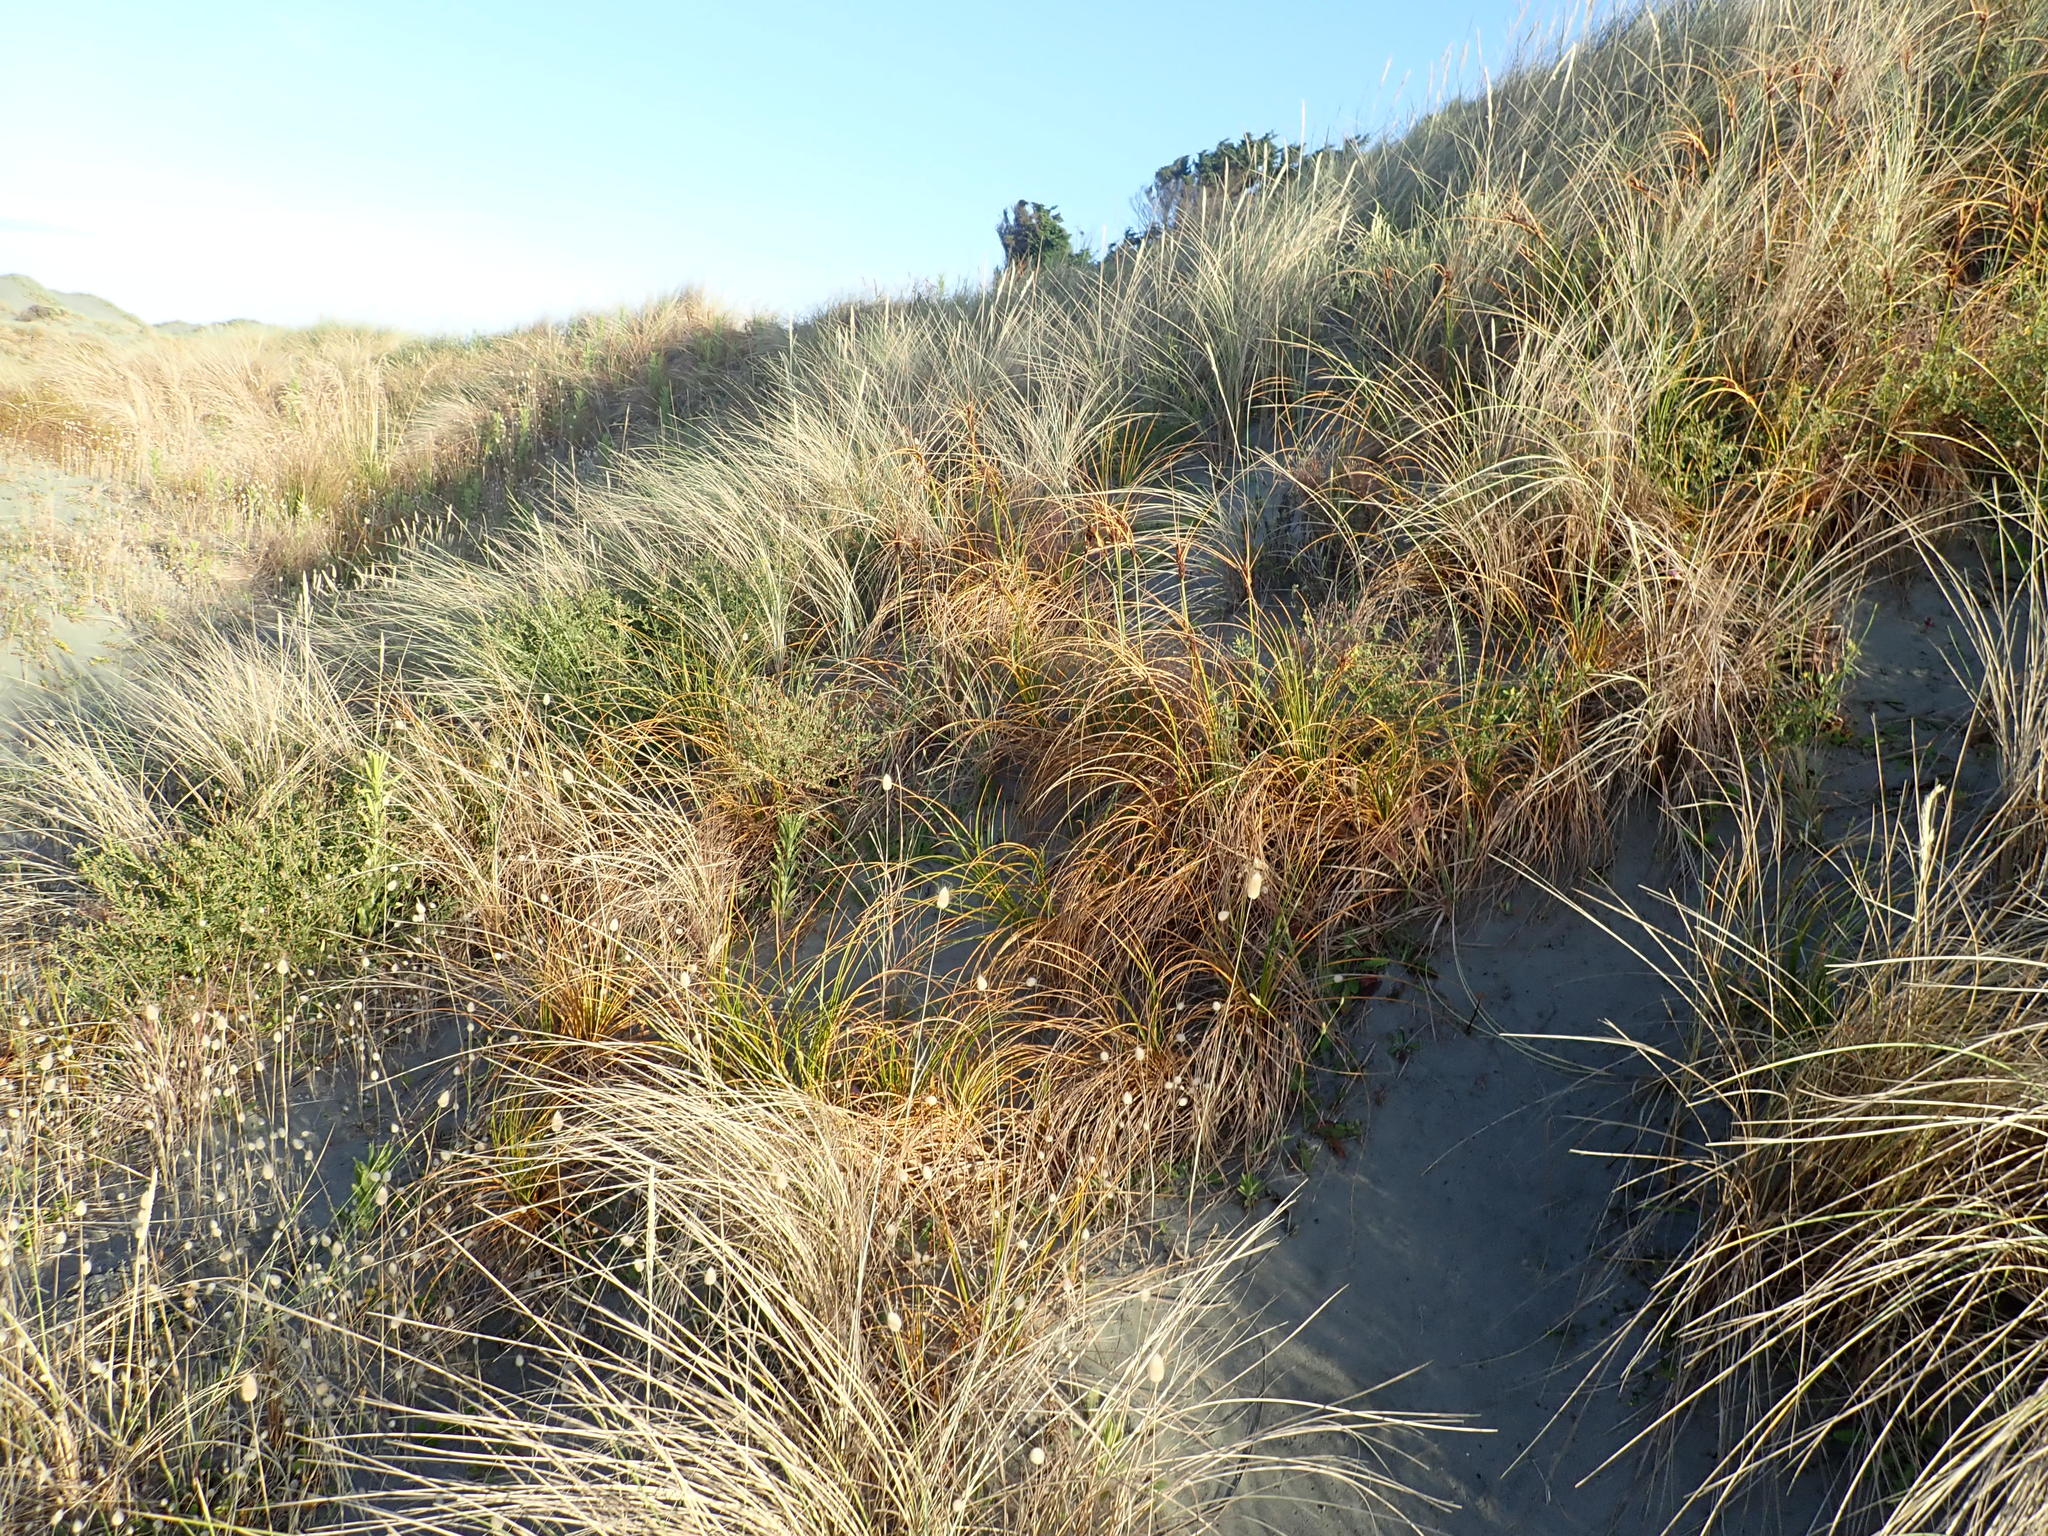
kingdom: Plantae
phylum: Tracheophyta
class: Liliopsida
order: Poales
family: Cyperaceae
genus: Ficinia
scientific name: Ficinia spiralis
